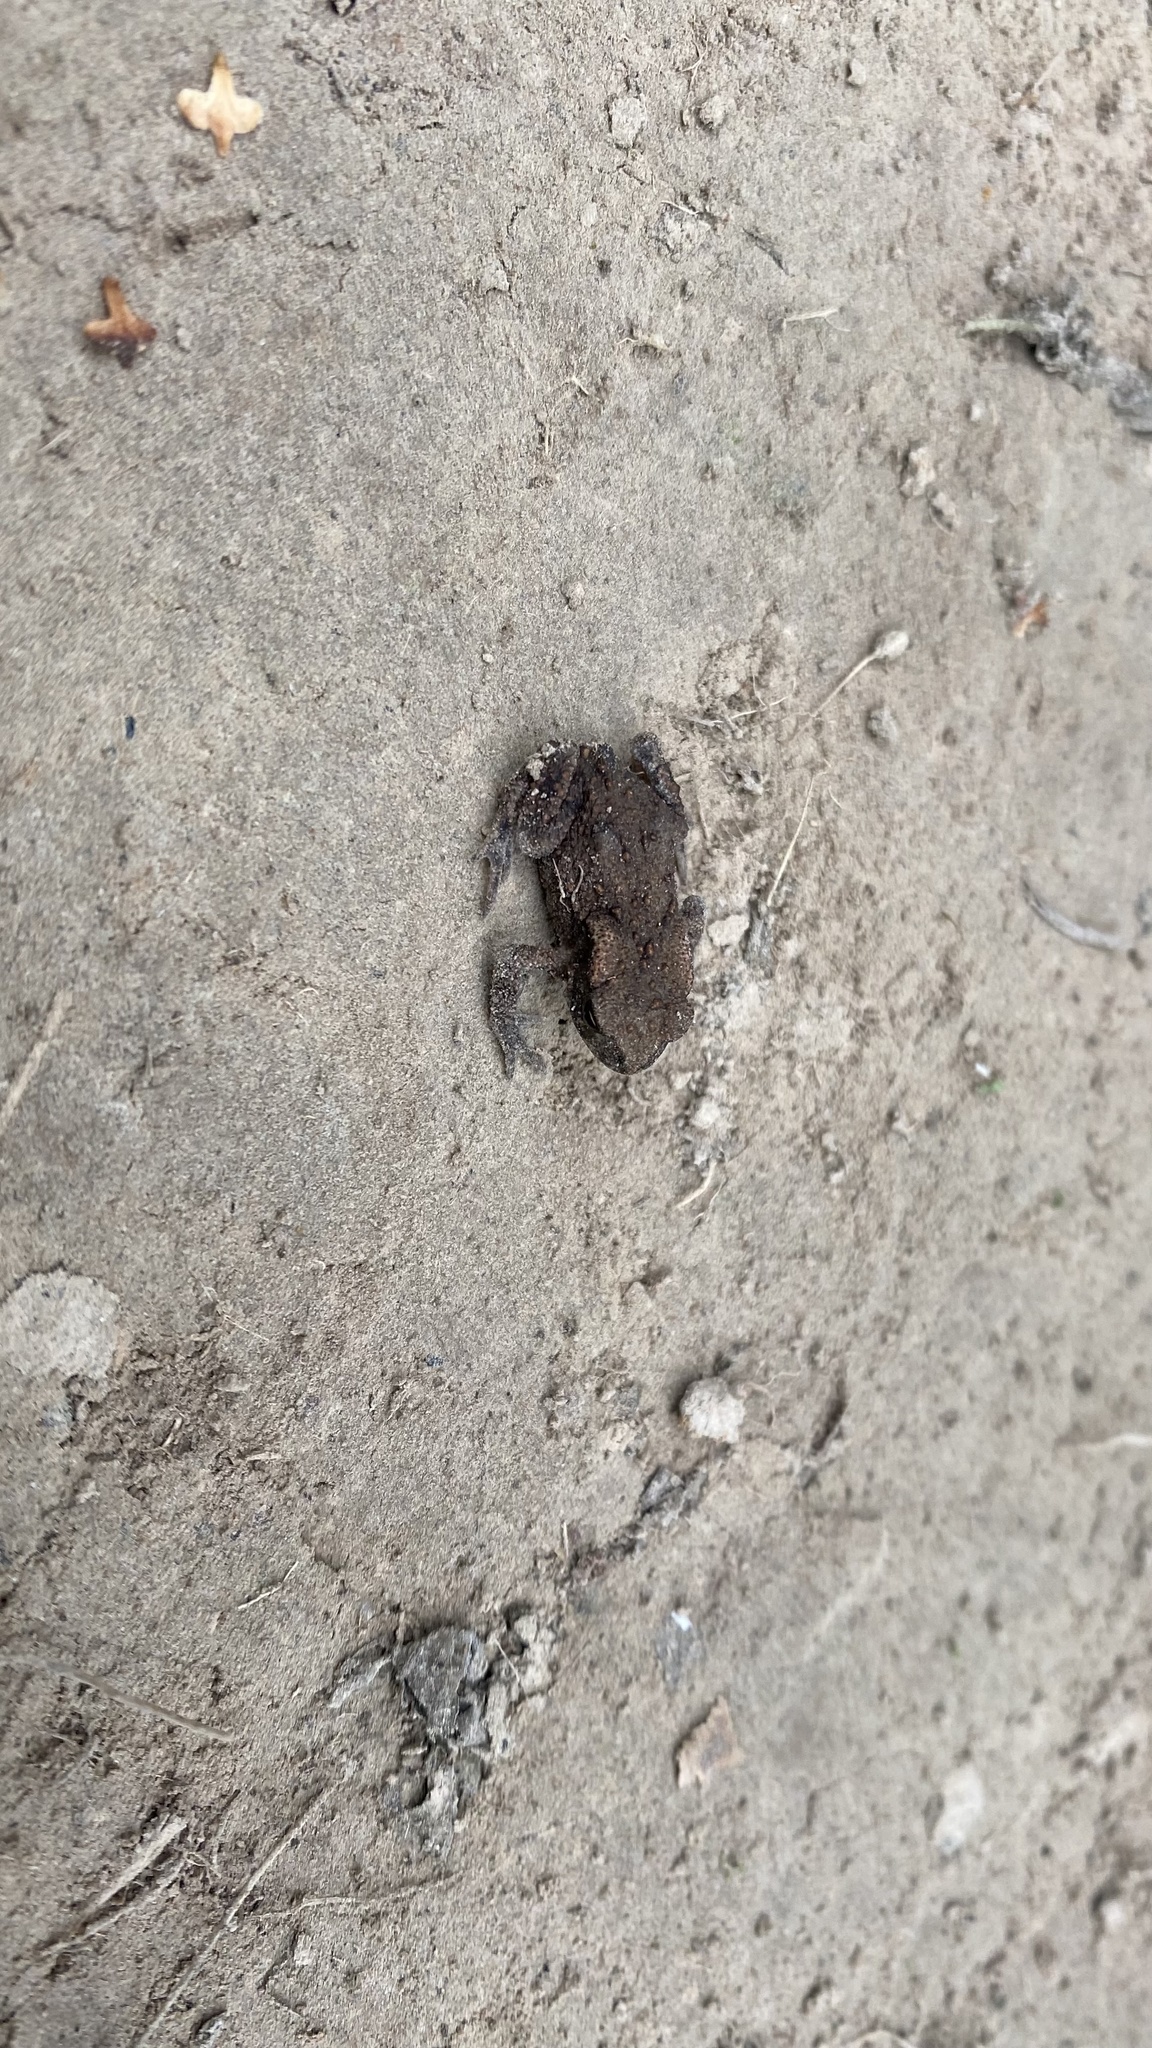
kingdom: Animalia
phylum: Chordata
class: Amphibia
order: Anura
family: Bufonidae
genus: Bufo
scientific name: Bufo bufo
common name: Common toad
